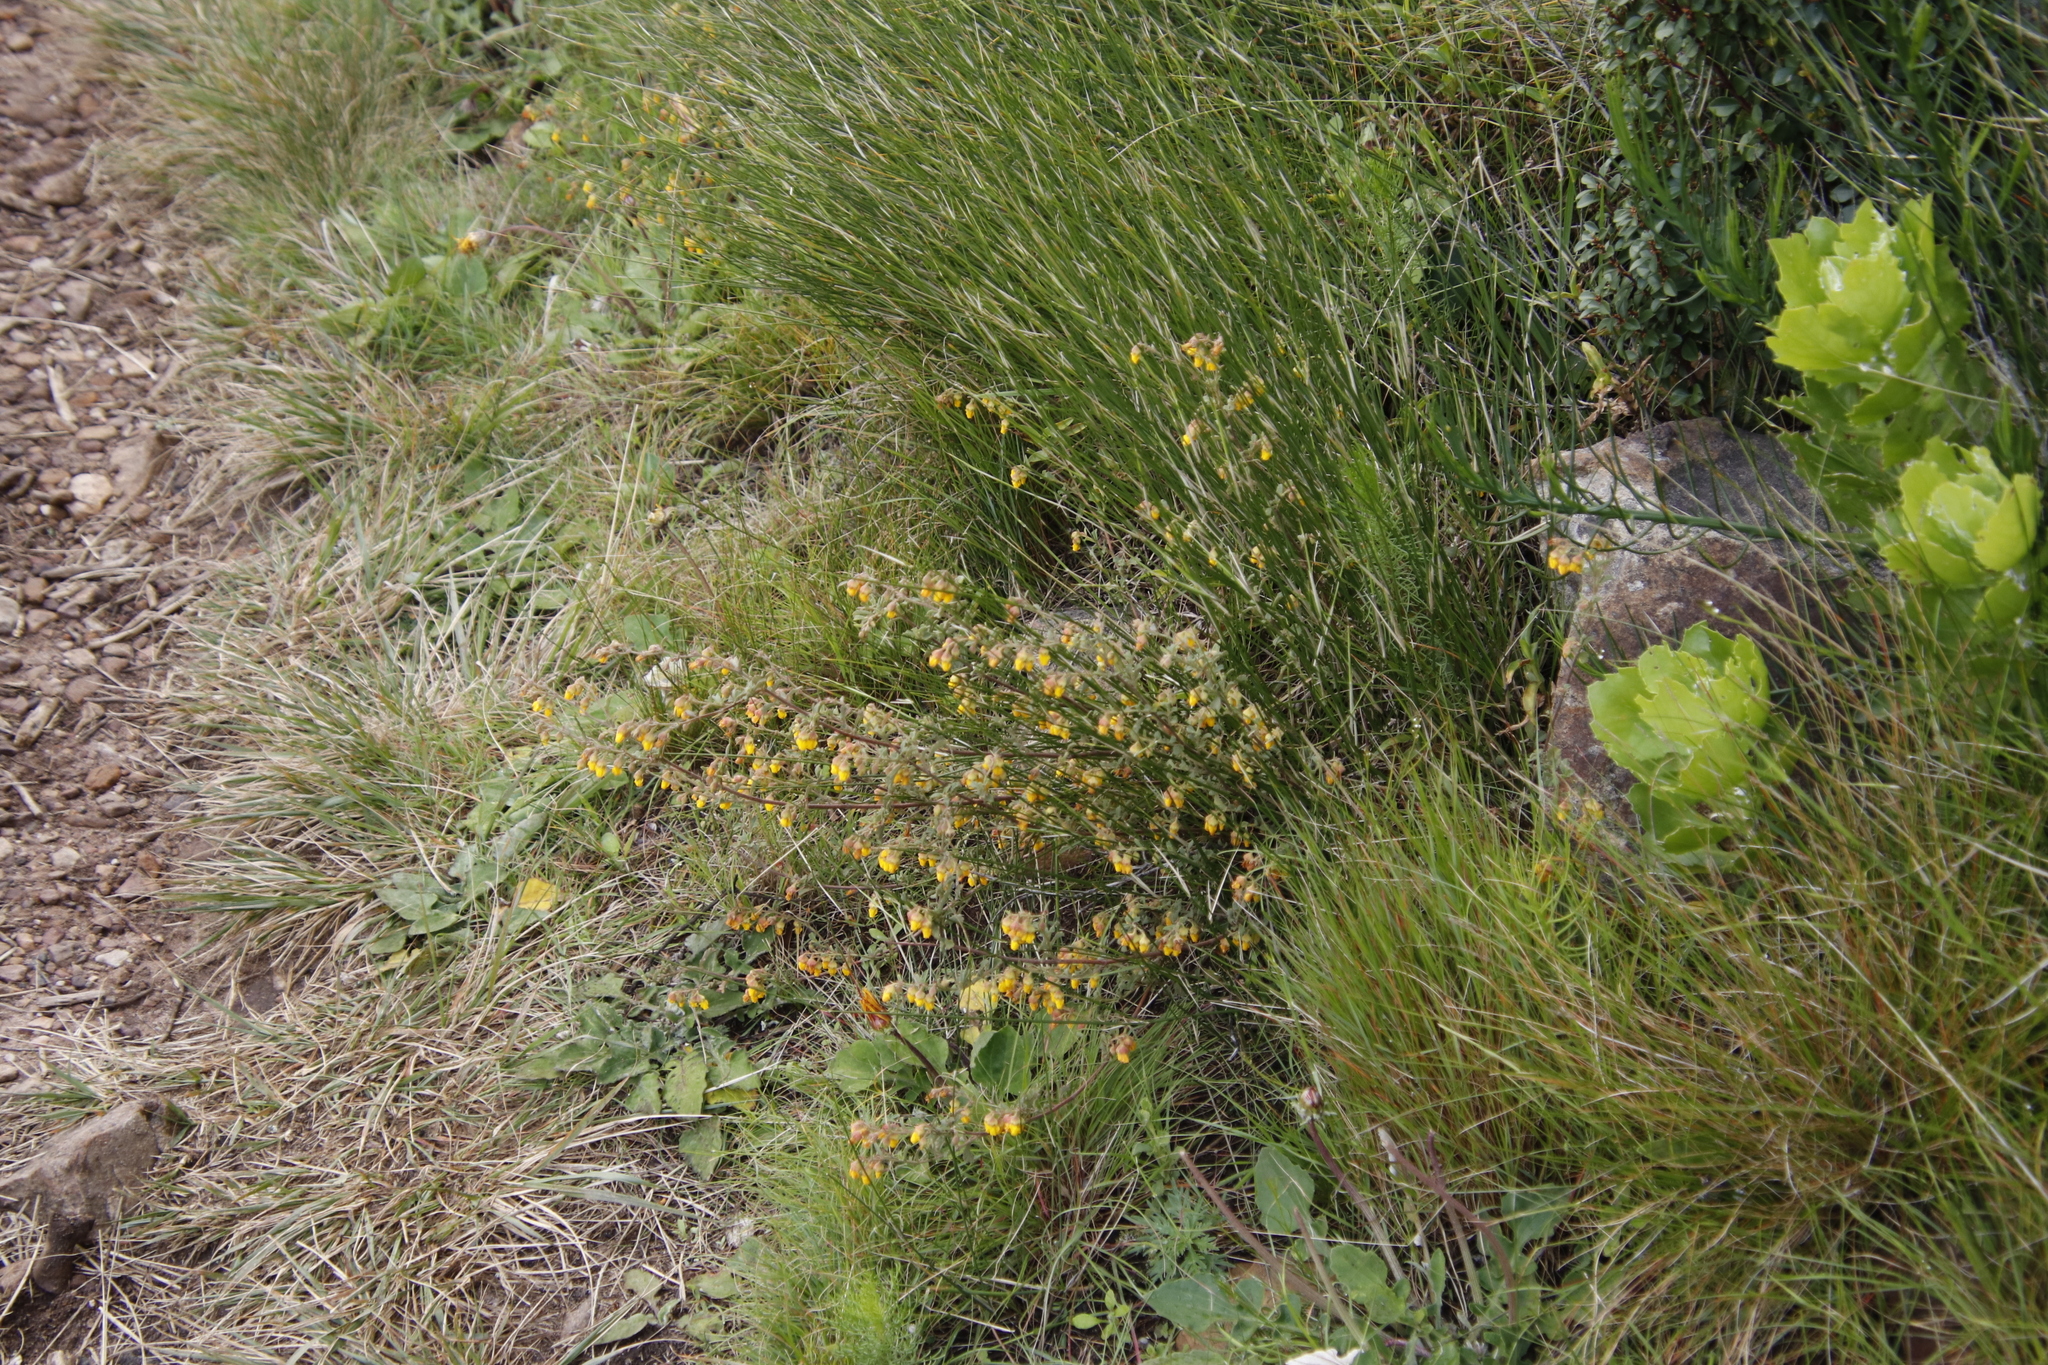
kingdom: Plantae
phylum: Tracheophyta
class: Magnoliopsida
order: Malvales
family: Malvaceae
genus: Hermannia
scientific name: Hermannia multiflora
